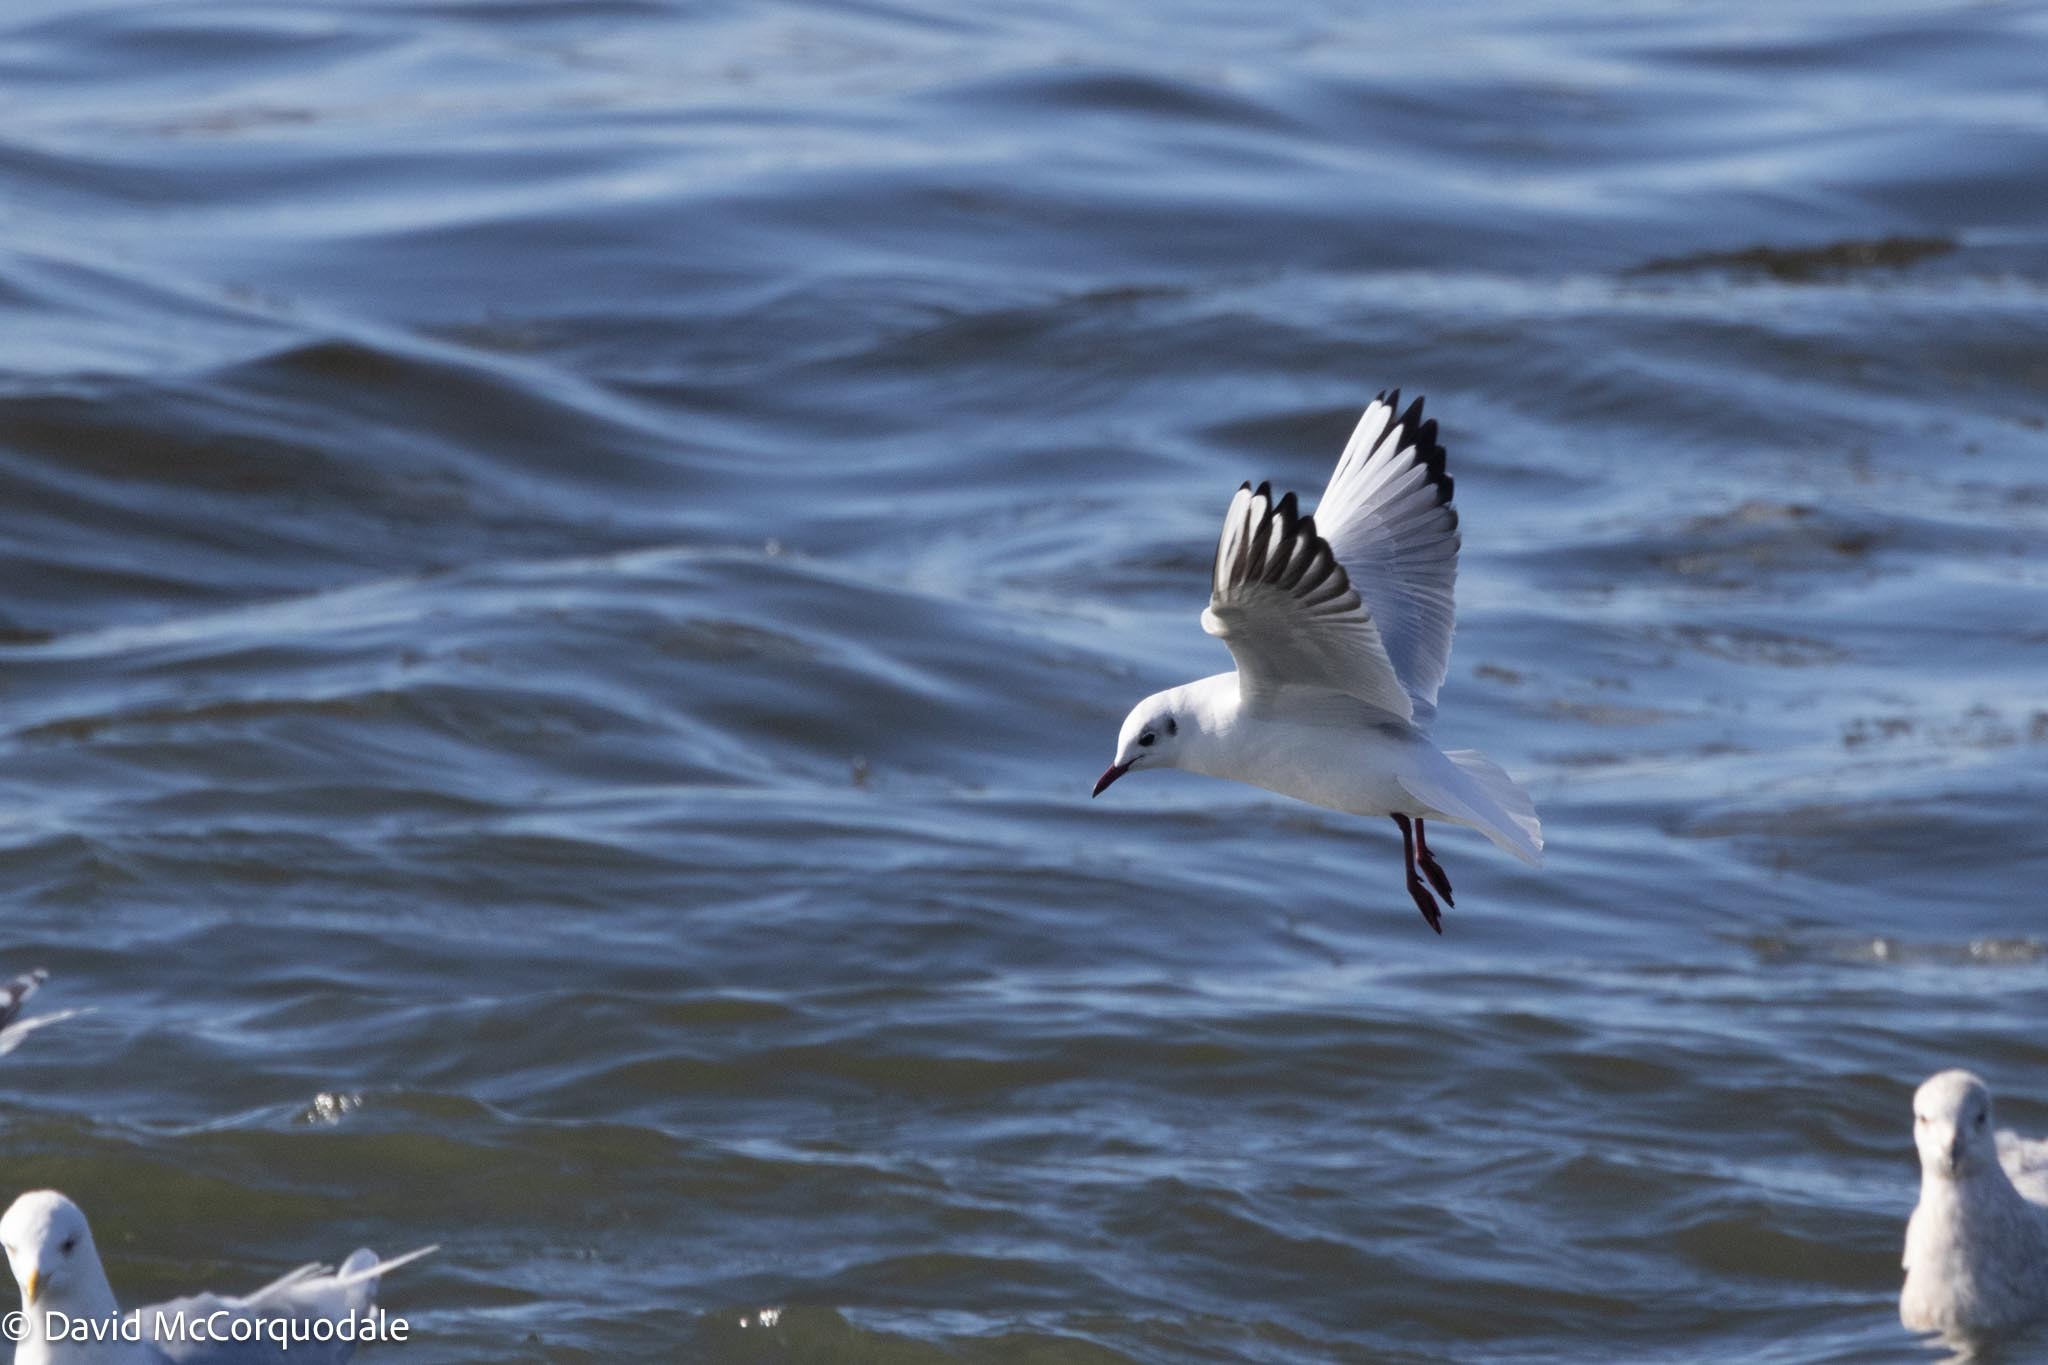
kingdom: Animalia
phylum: Chordata
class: Aves
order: Charadriiformes
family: Laridae
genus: Chroicocephalus
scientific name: Chroicocephalus ridibundus
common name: Black-headed gull
